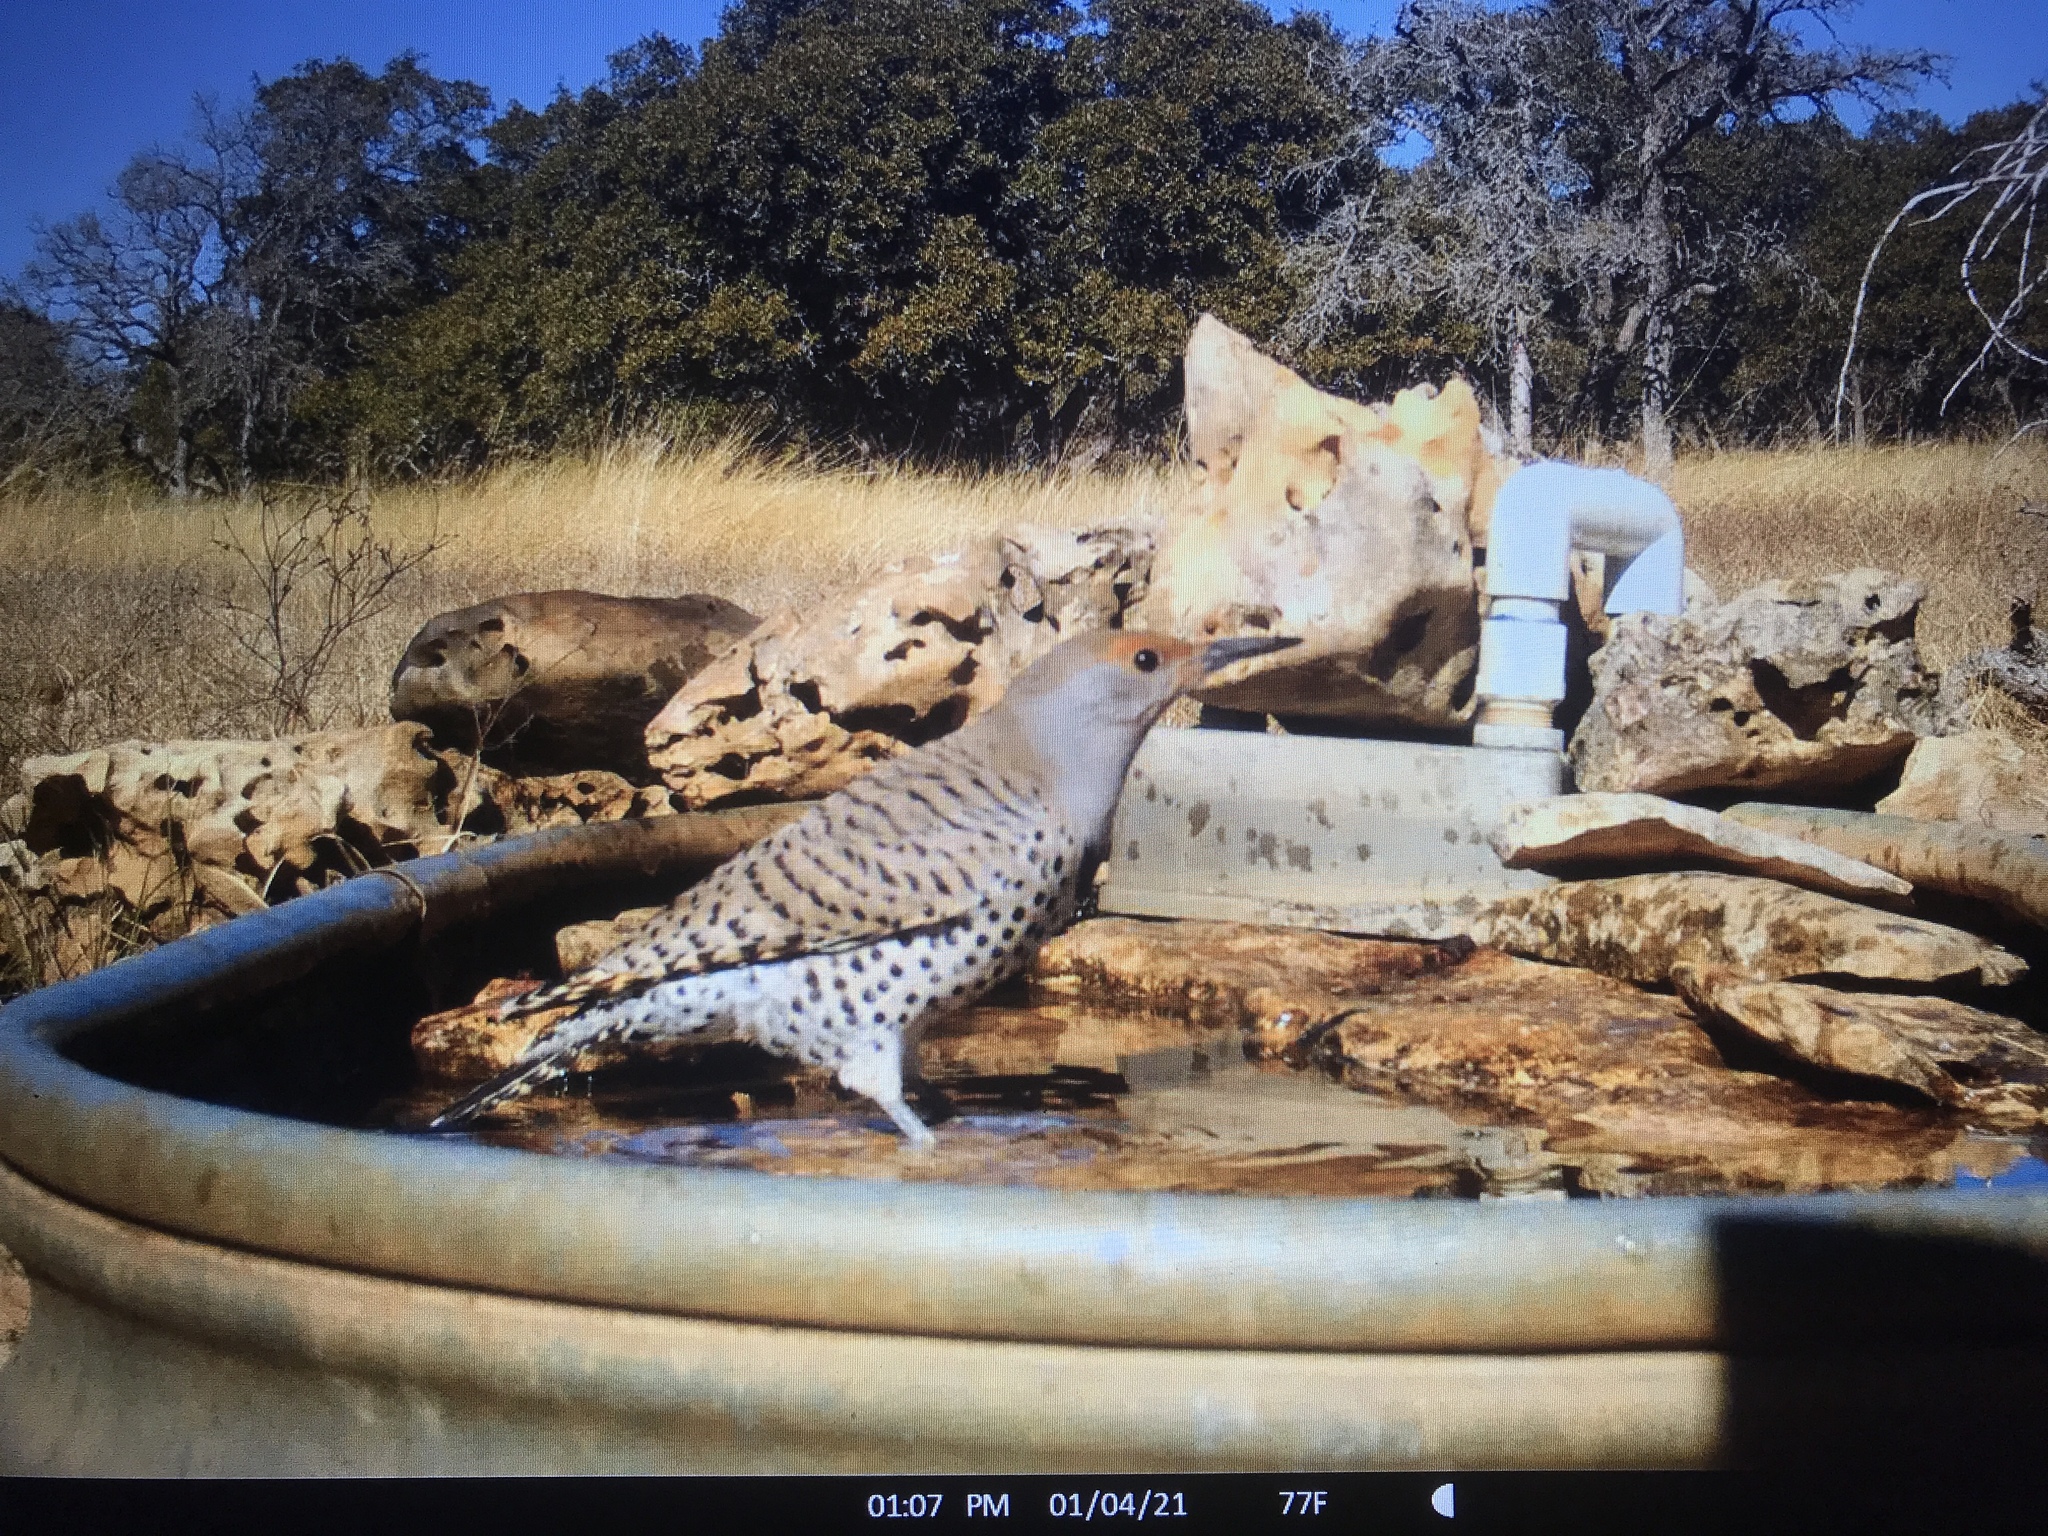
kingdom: Animalia
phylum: Chordata
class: Aves
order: Piciformes
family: Picidae
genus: Colaptes
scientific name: Colaptes auratus
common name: Northern flicker
